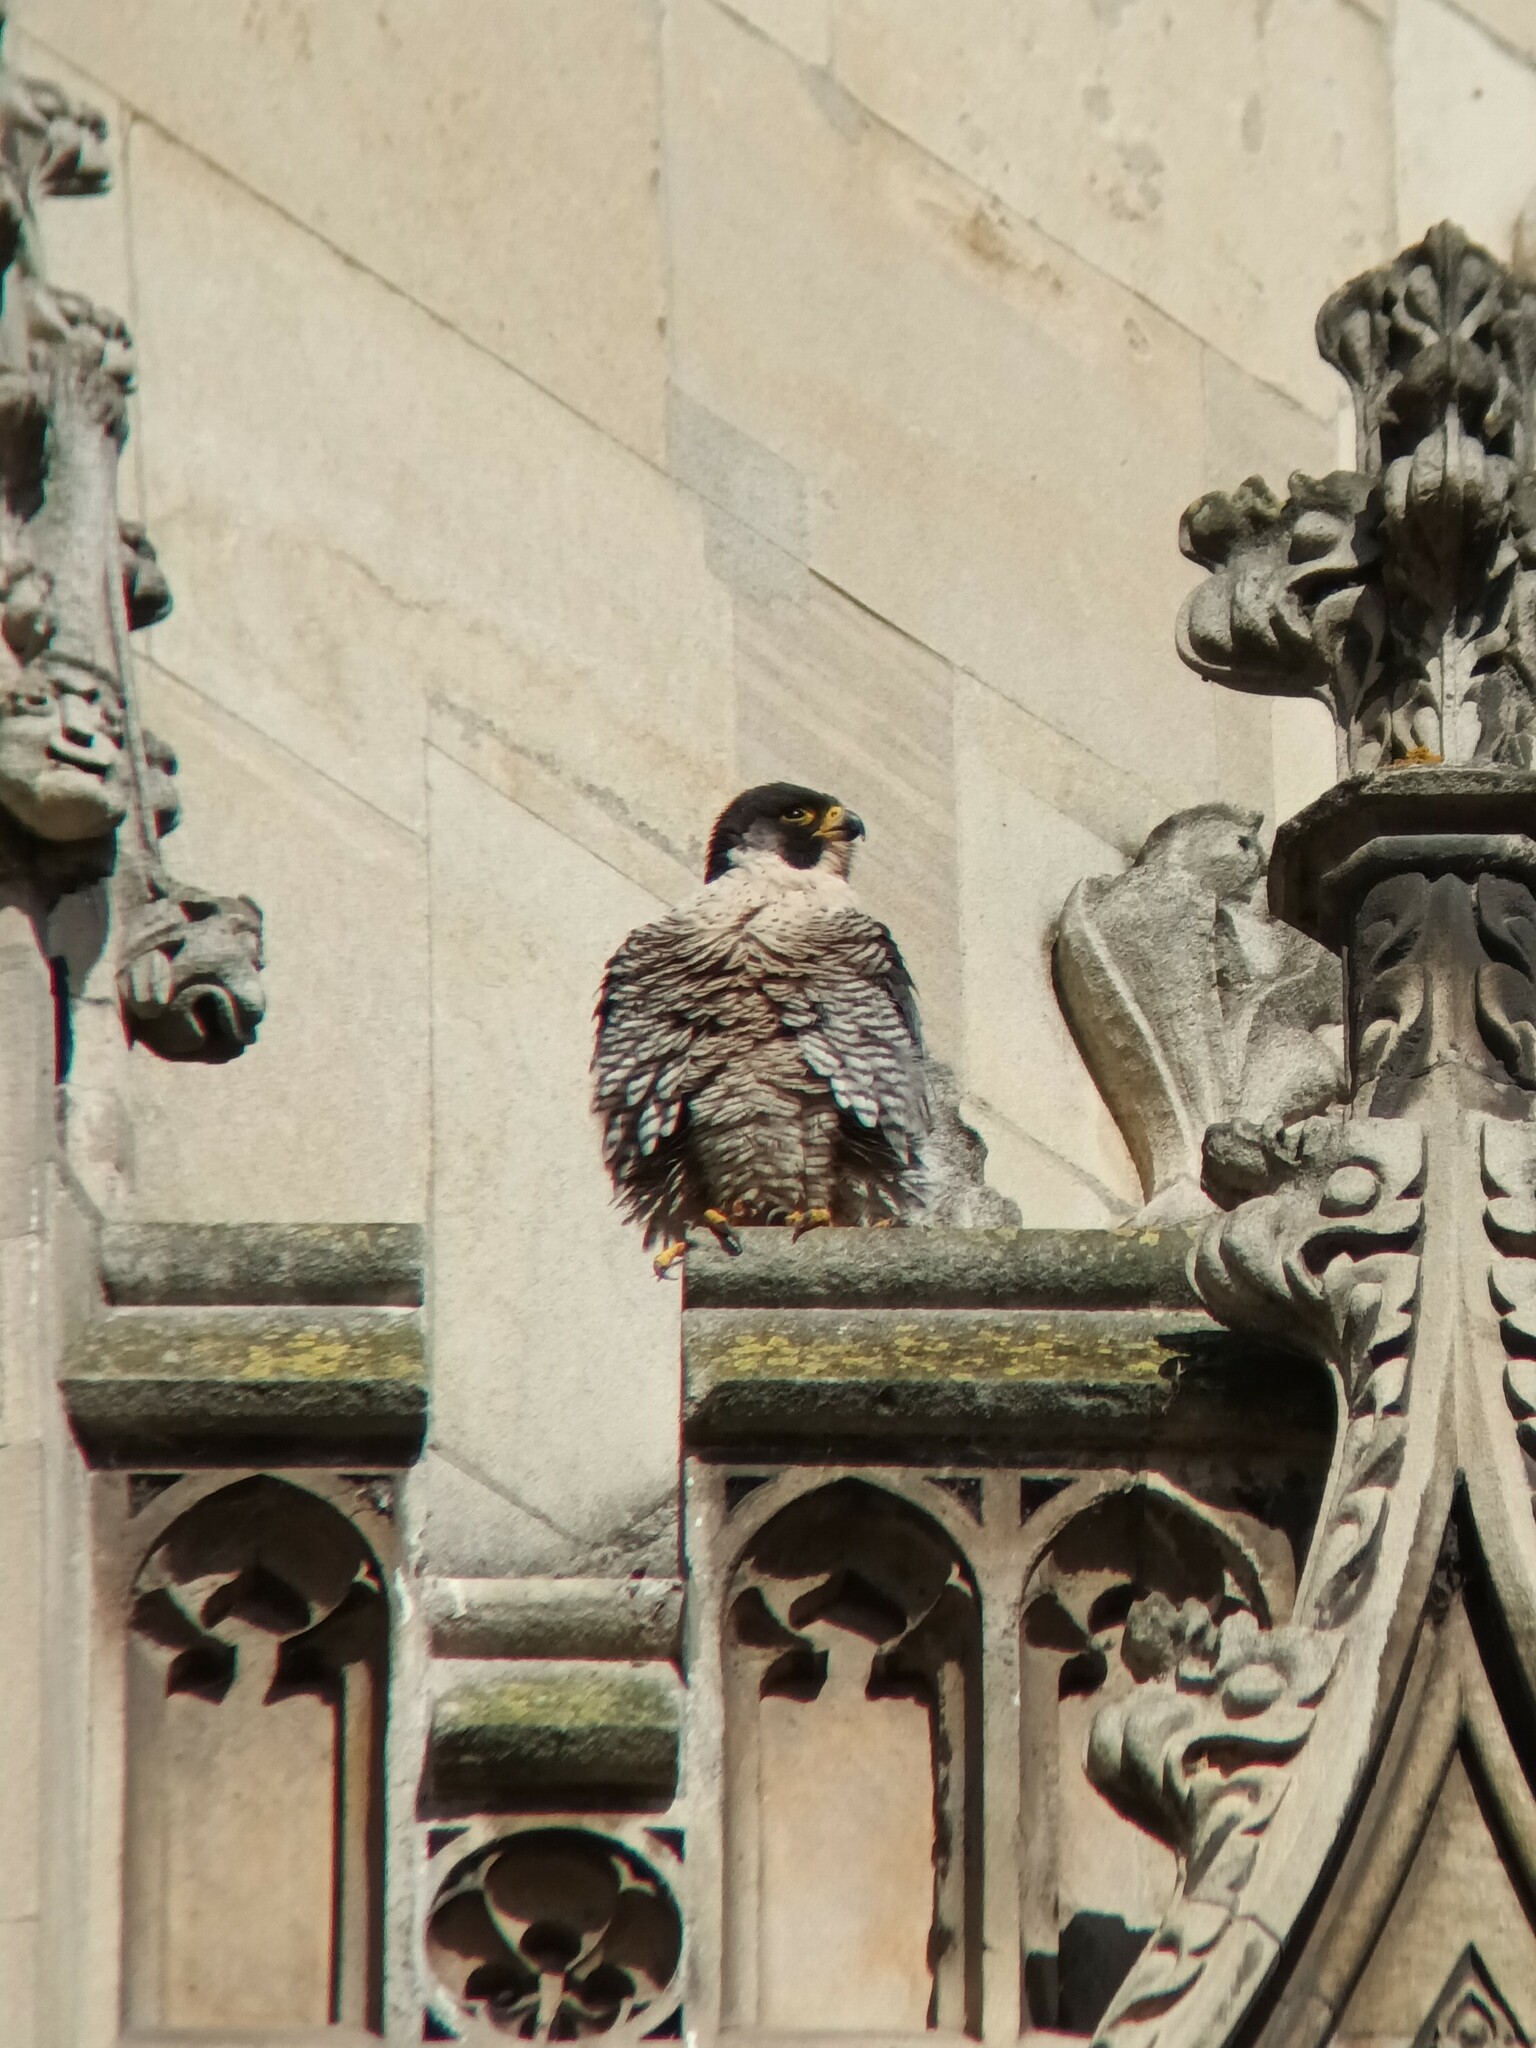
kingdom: Animalia
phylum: Chordata
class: Aves
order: Falconiformes
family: Falconidae
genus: Falco
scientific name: Falco peregrinus
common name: Peregrine falcon
